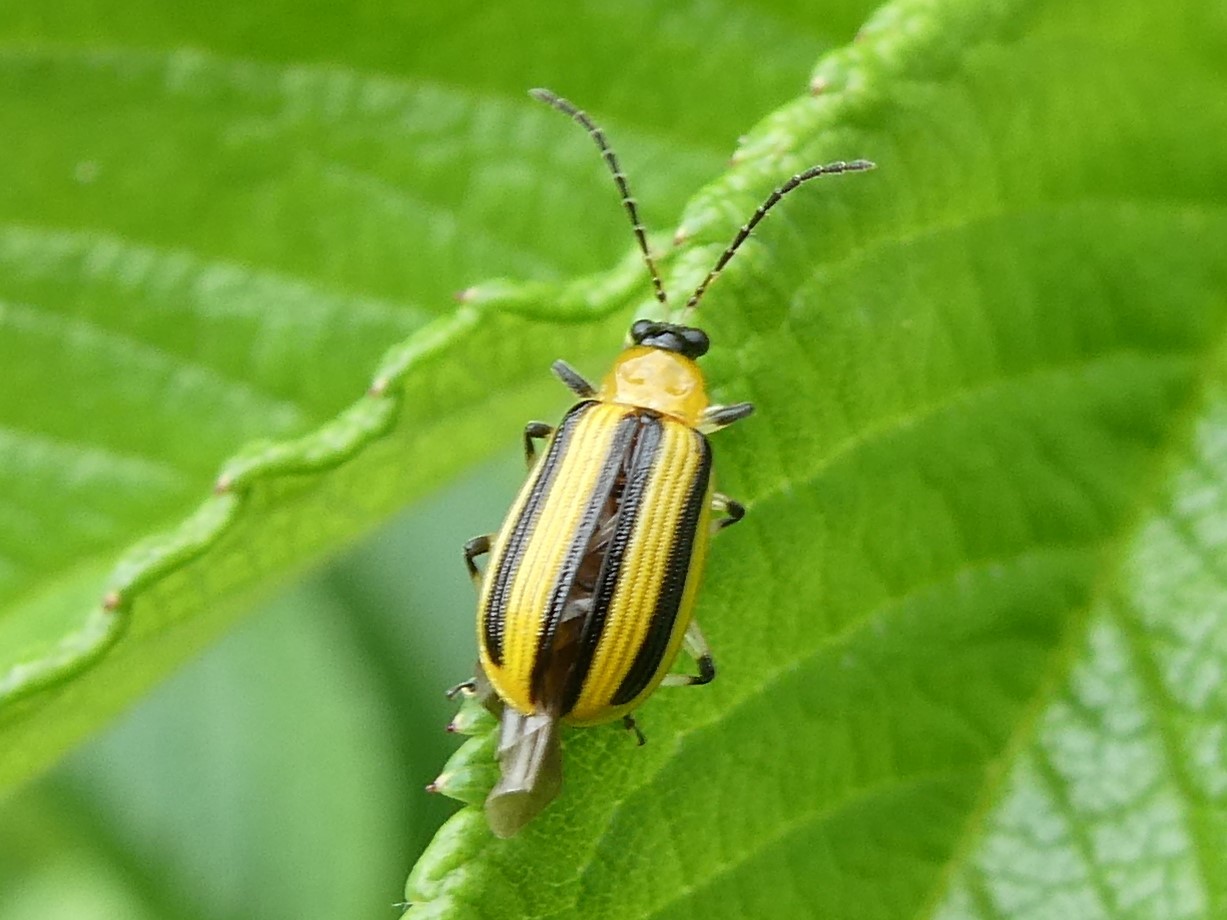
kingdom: Animalia
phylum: Arthropoda
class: Insecta
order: Coleoptera
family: Chrysomelidae
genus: Acalymma
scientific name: Acalymma vittatum
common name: Striped cucumber beetle
